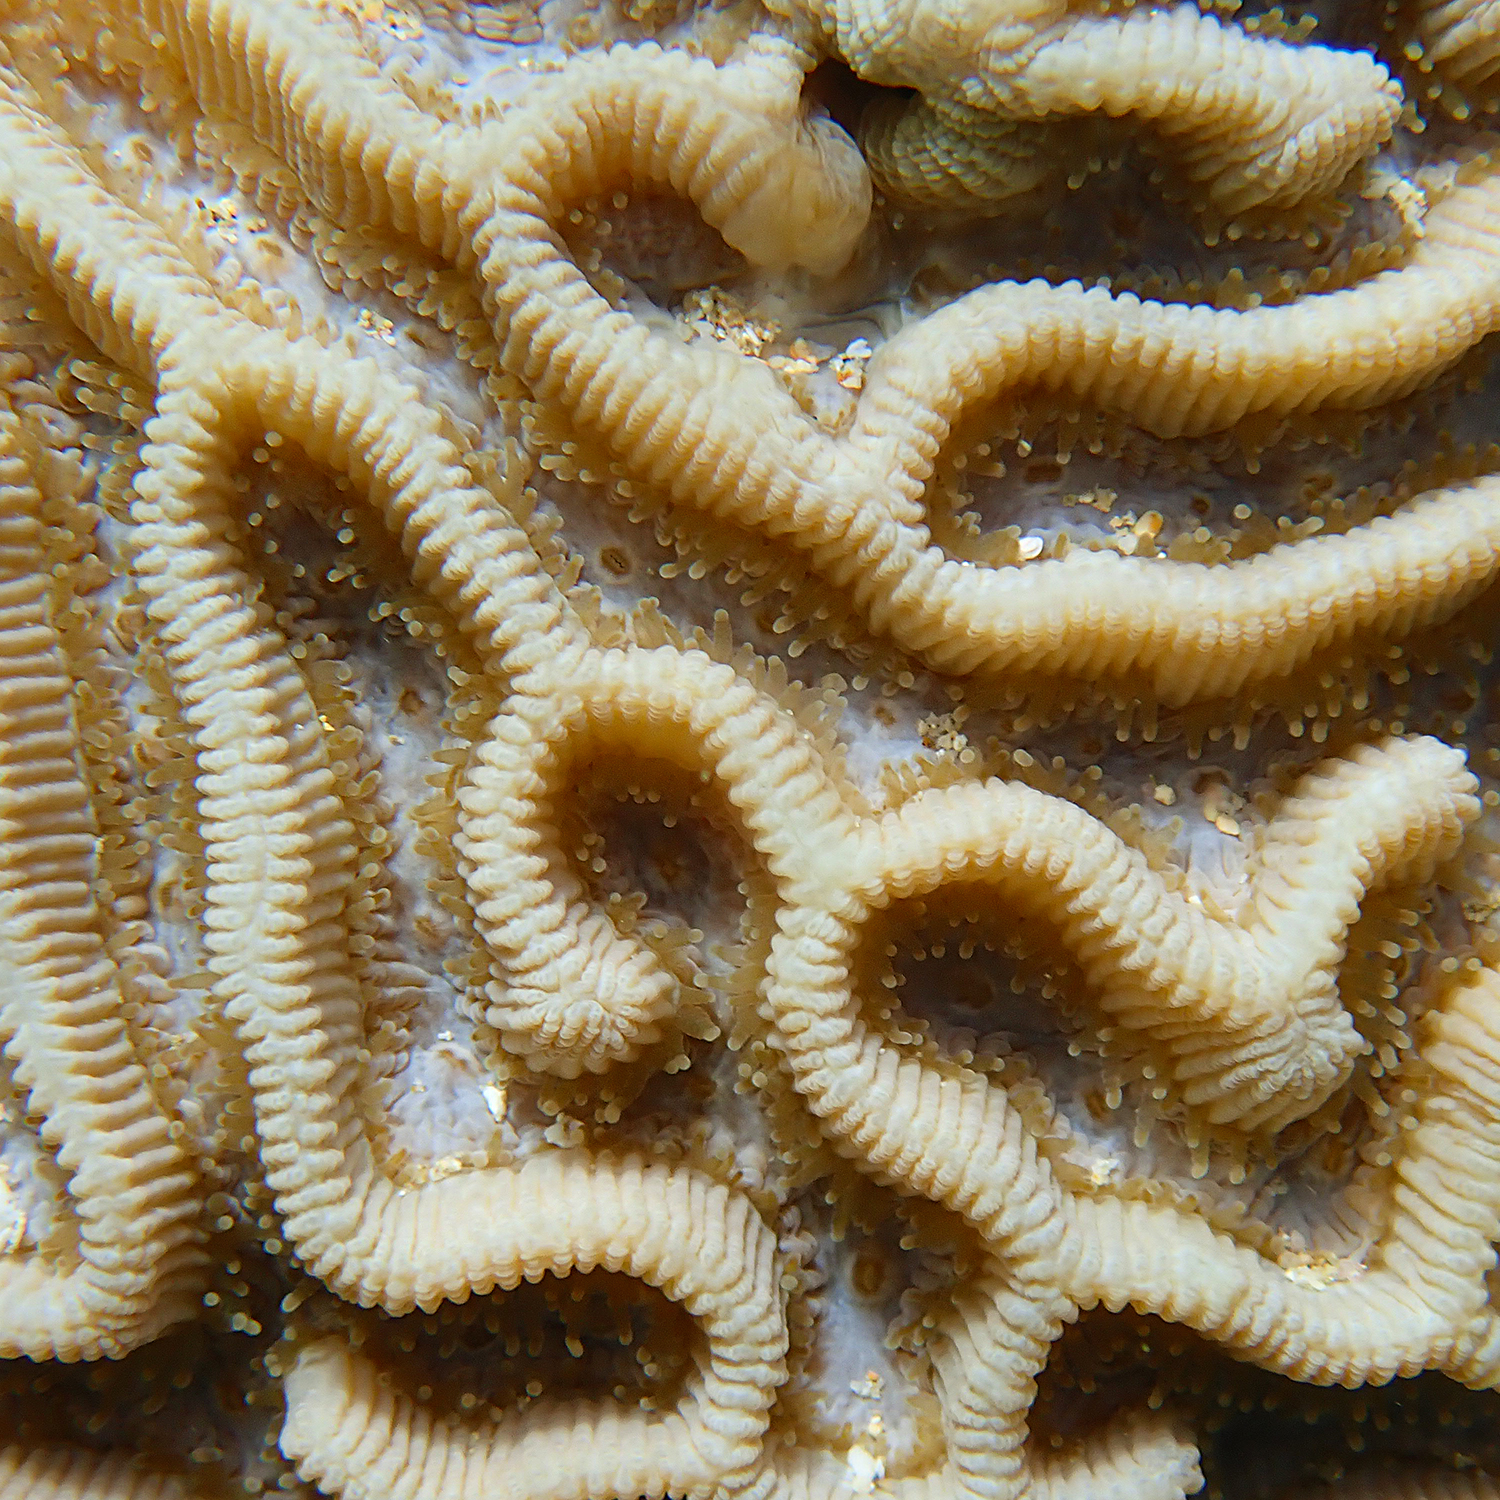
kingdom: Animalia
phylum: Cnidaria
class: Anthozoa
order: Scleractinia
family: Merulinidae
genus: Paragoniastrea
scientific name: Paragoniastrea australensis
